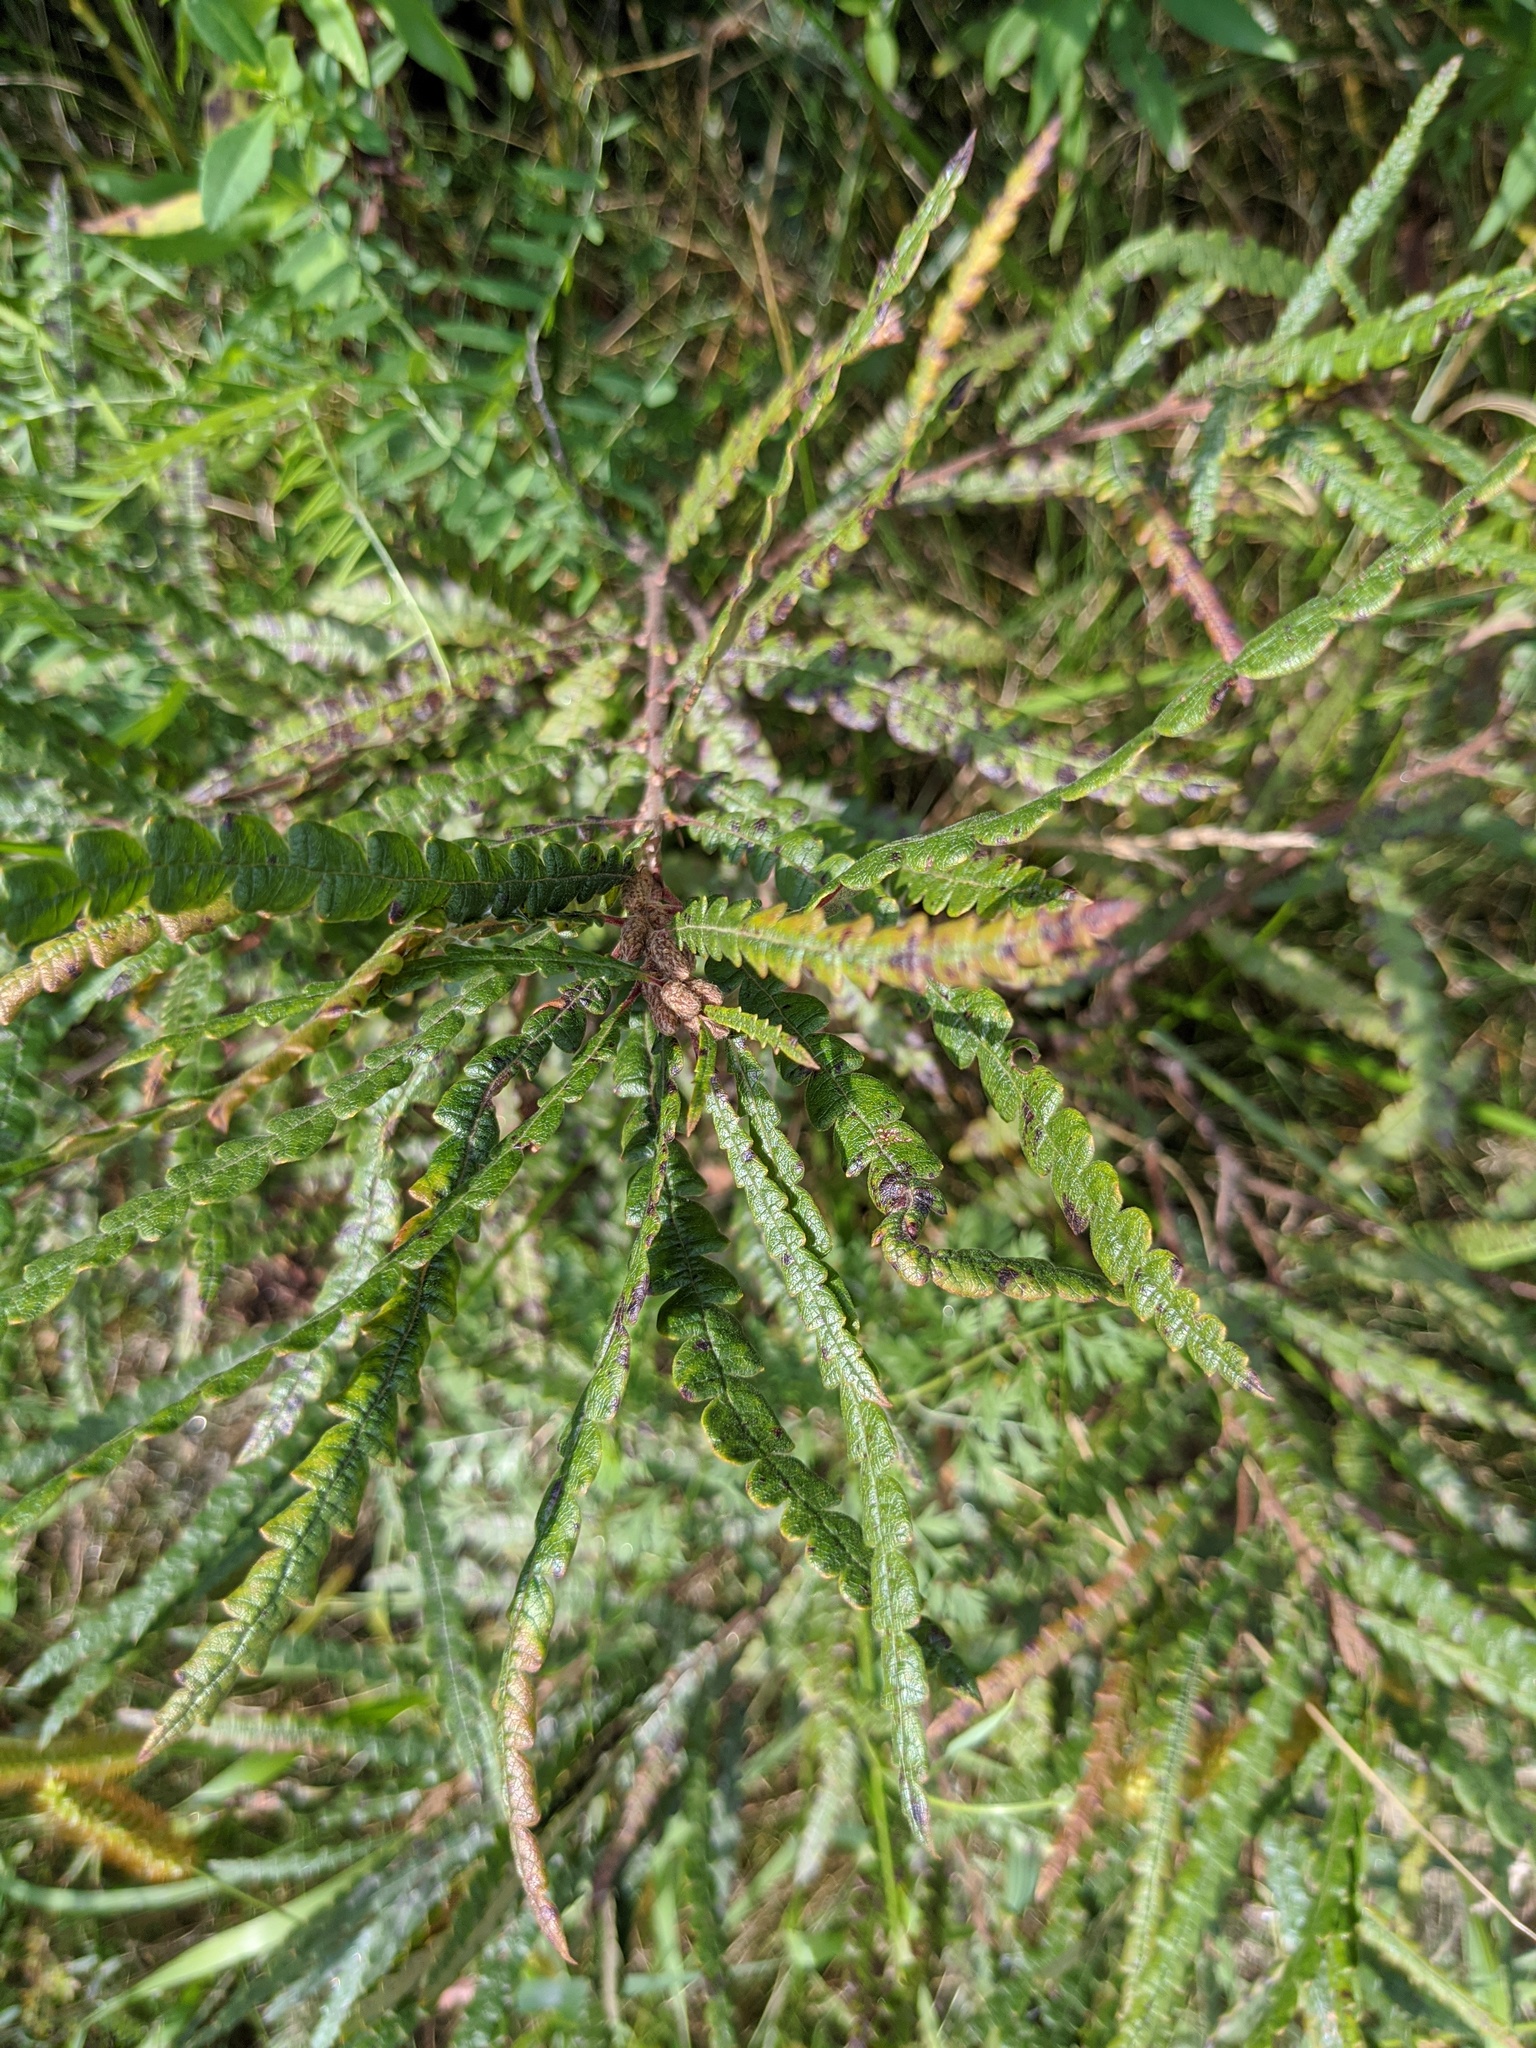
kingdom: Plantae
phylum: Tracheophyta
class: Magnoliopsida
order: Fagales
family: Myricaceae
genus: Comptonia
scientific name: Comptonia peregrina
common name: Sweet-fern
